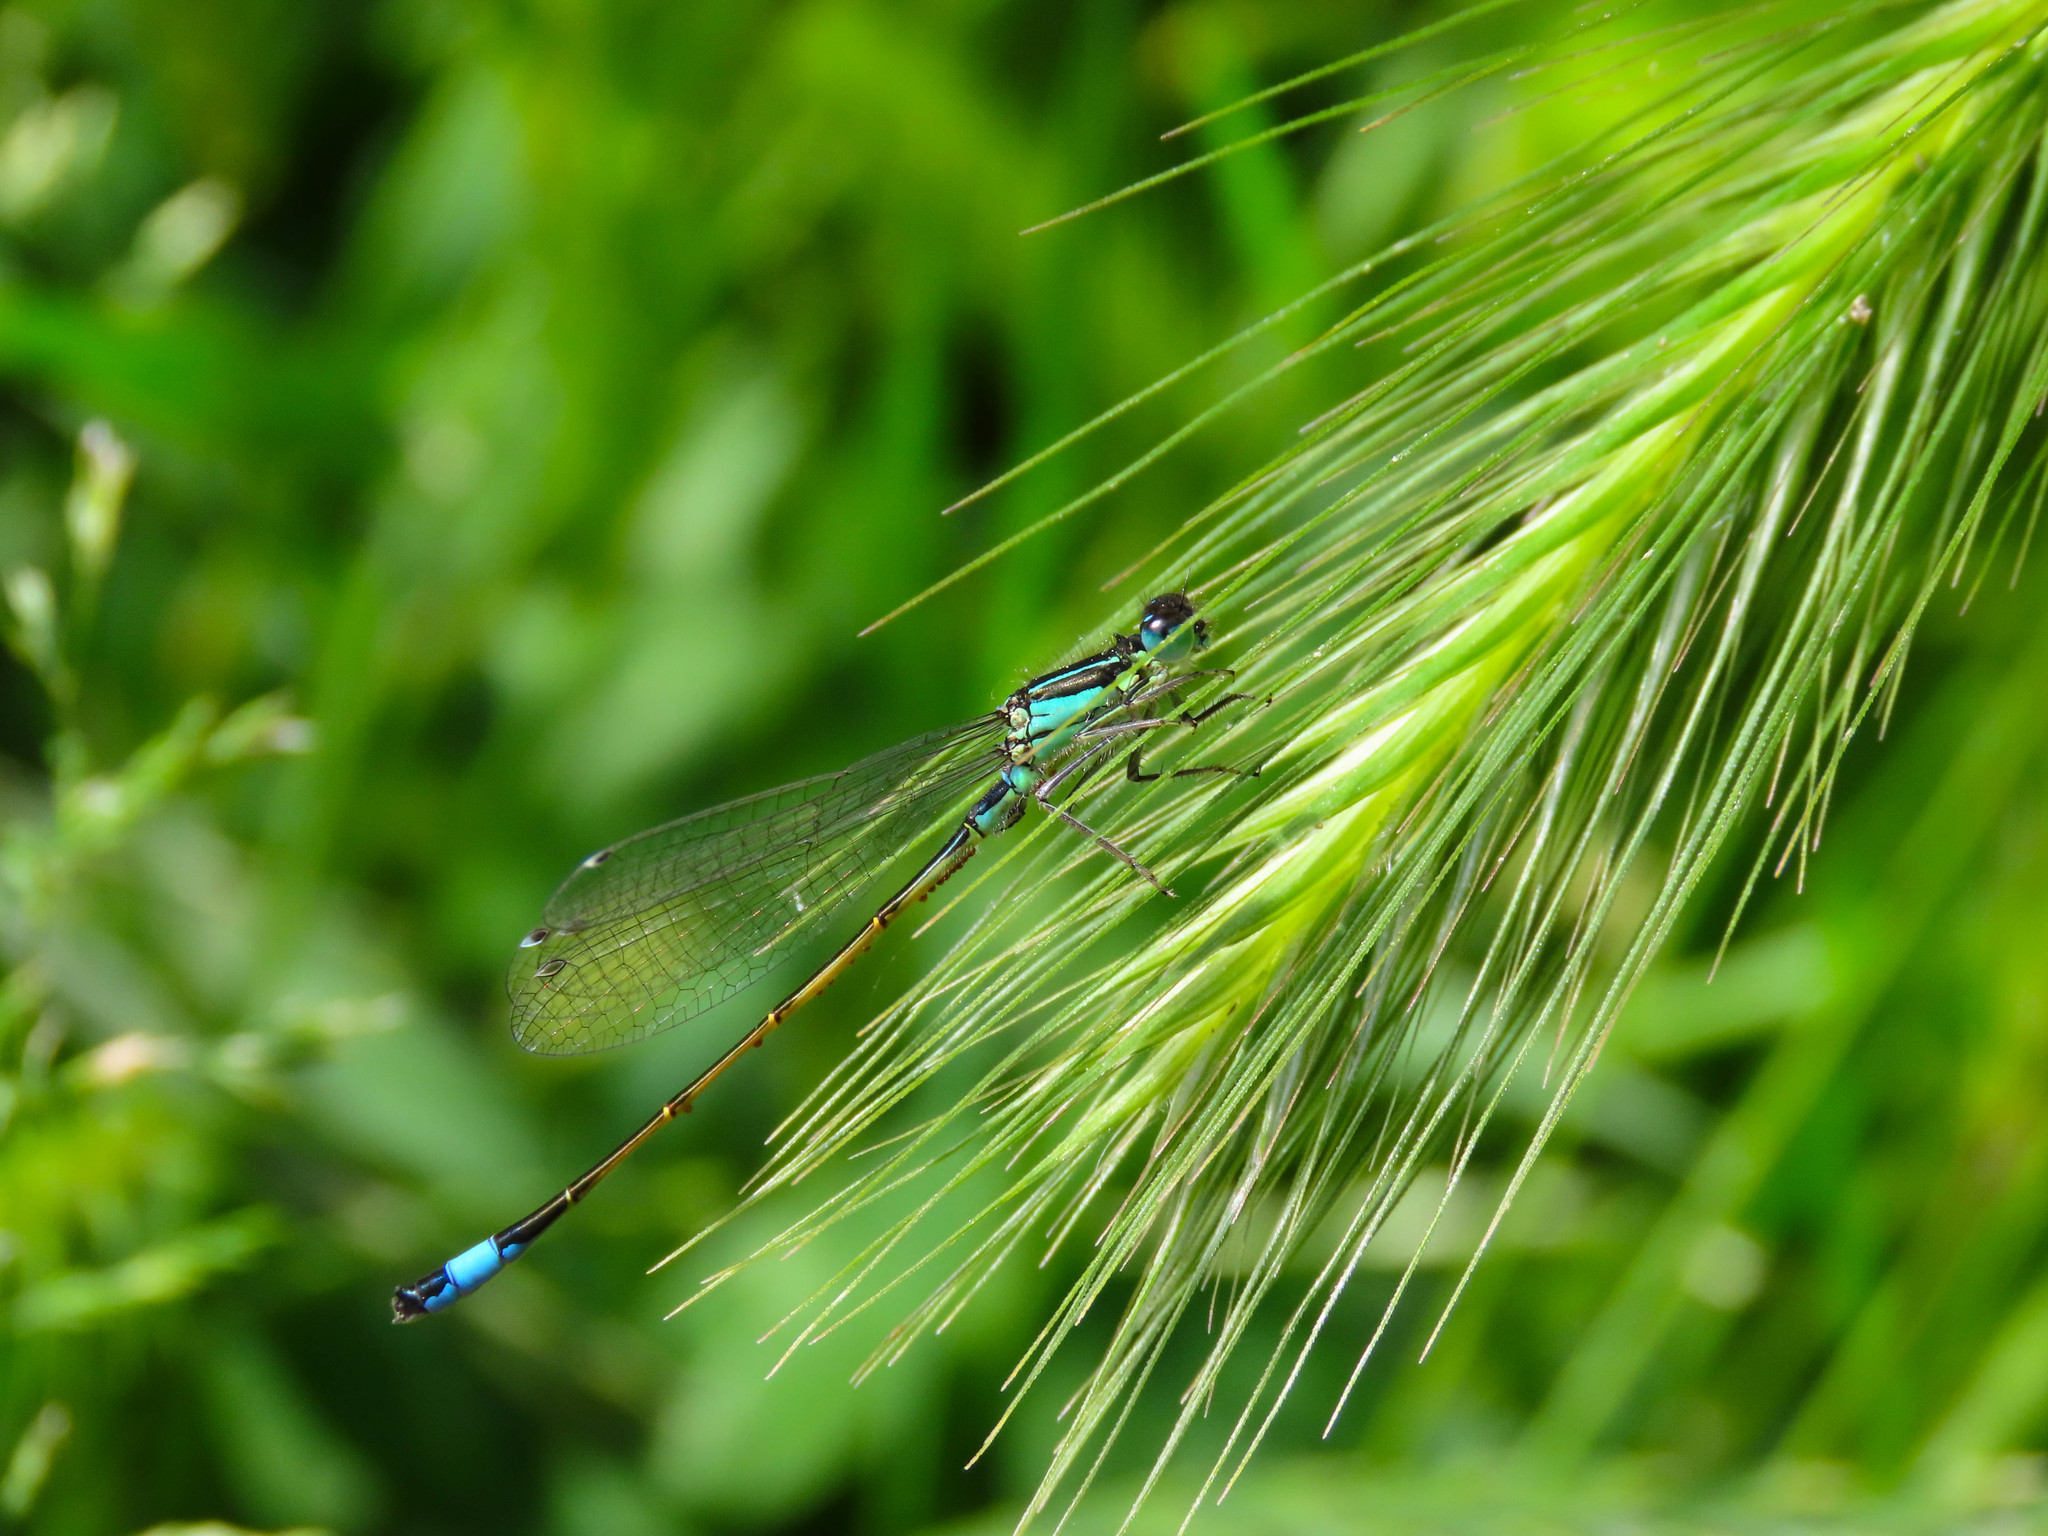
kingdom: Animalia
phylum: Arthropoda
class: Insecta
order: Odonata
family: Coenagrionidae
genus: Ischnura
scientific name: Ischnura elegans
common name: Blue-tailed damselfly
